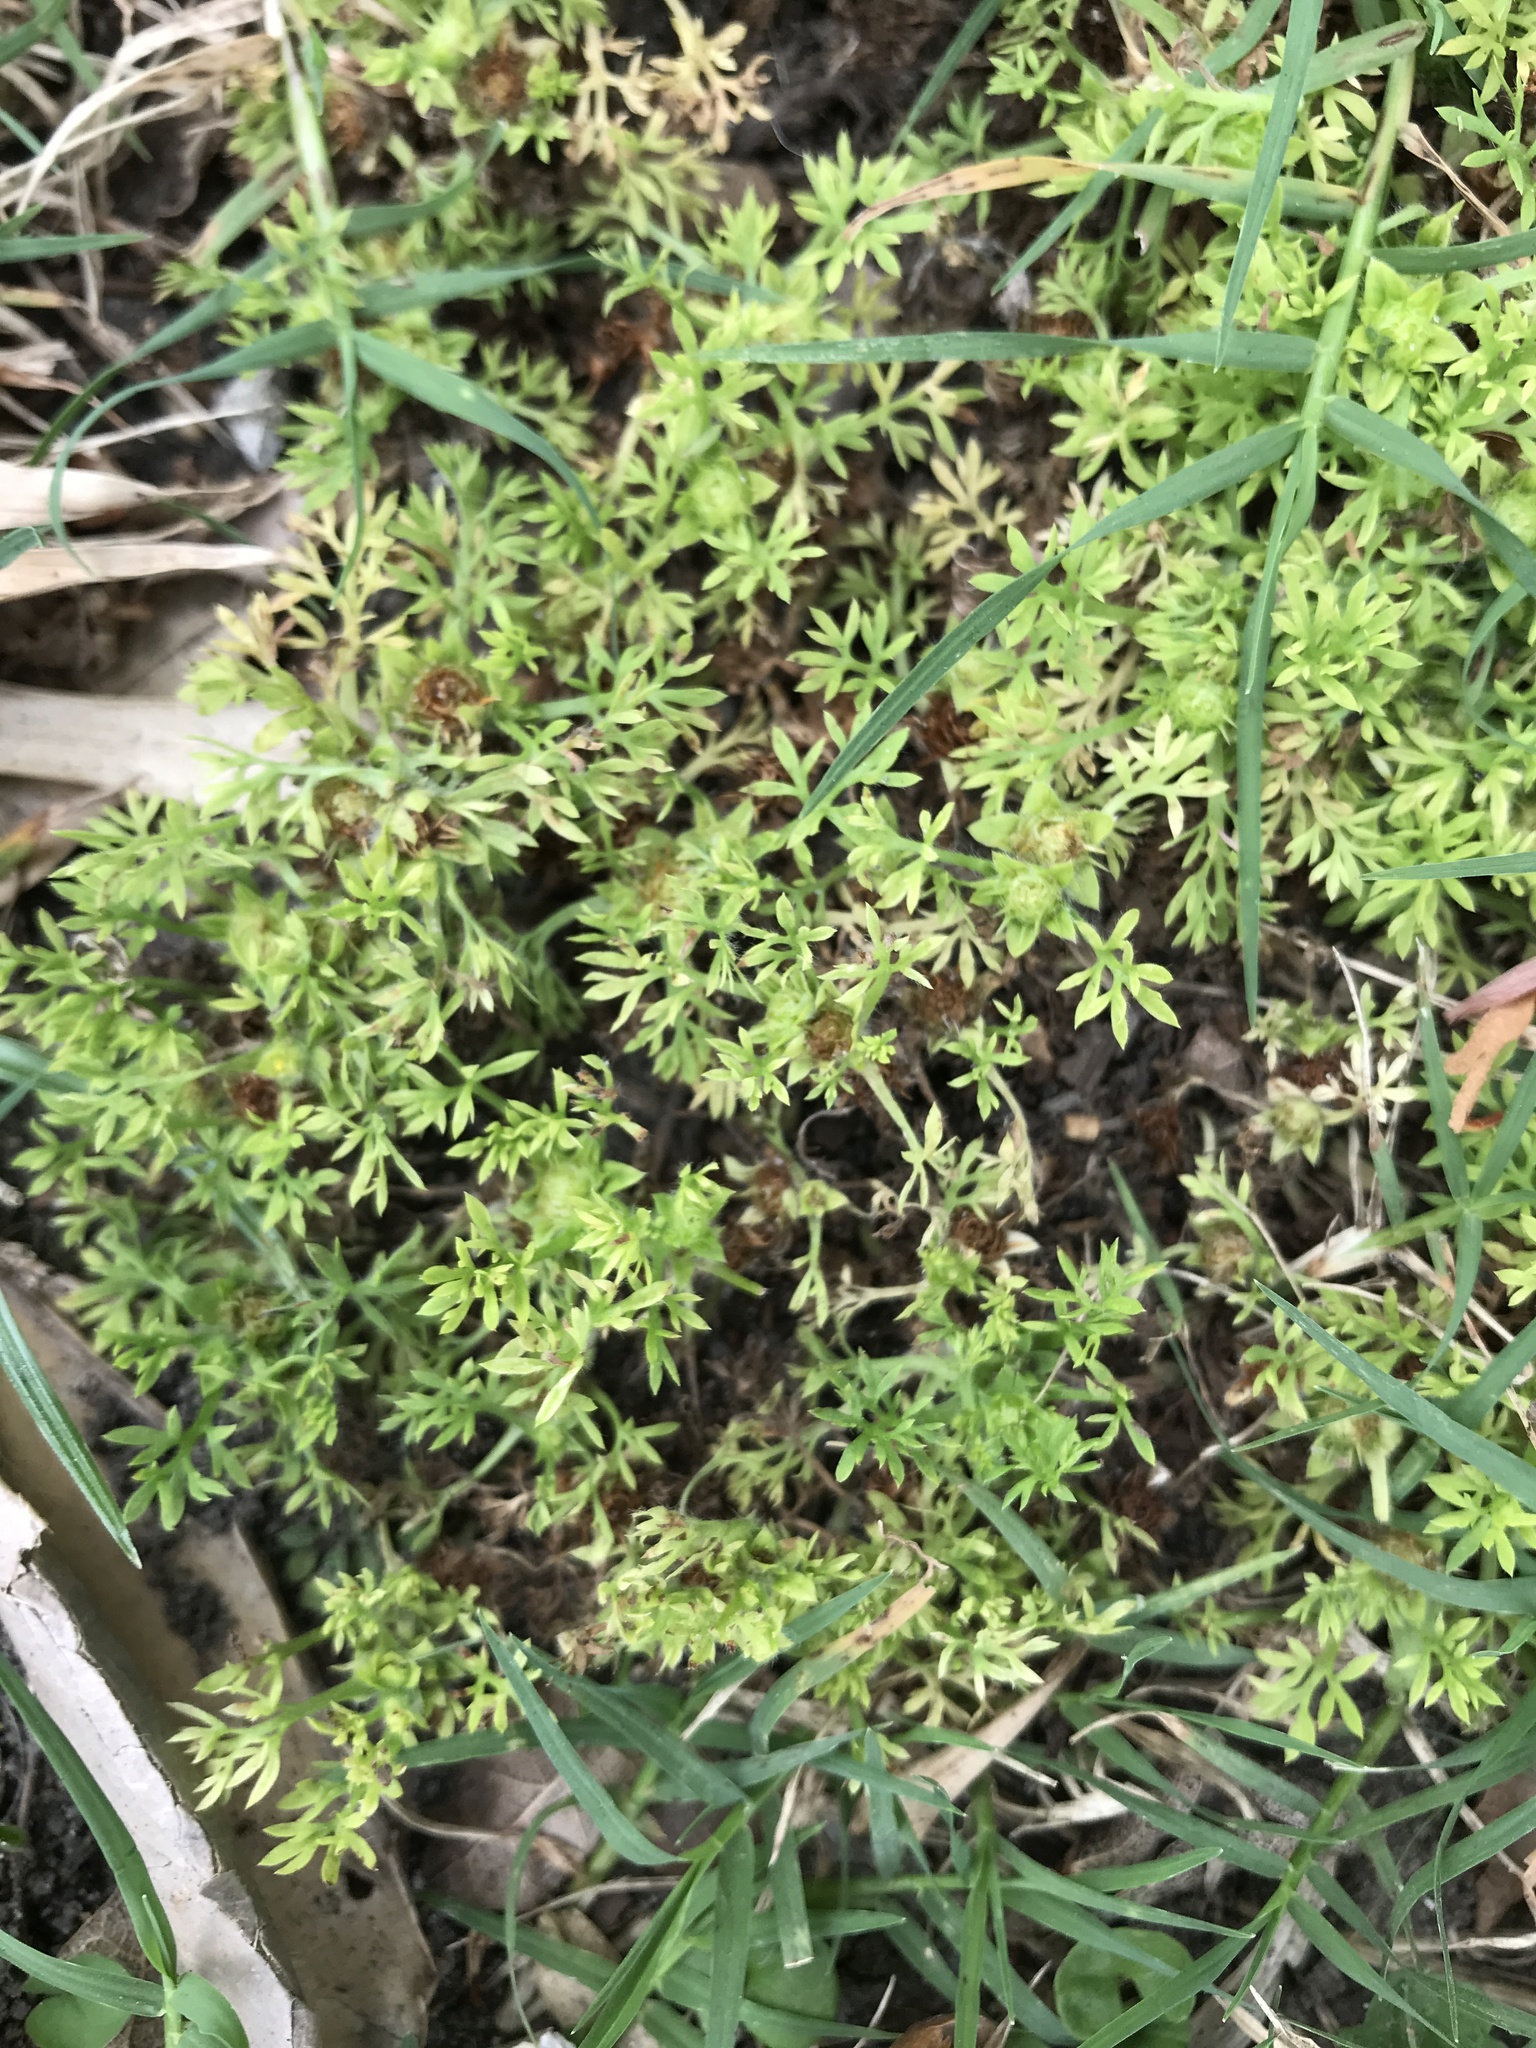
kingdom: Plantae
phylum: Tracheophyta
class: Magnoliopsida
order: Asterales
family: Asteraceae
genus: Soliva
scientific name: Soliva sessilis
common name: Field burrweed
